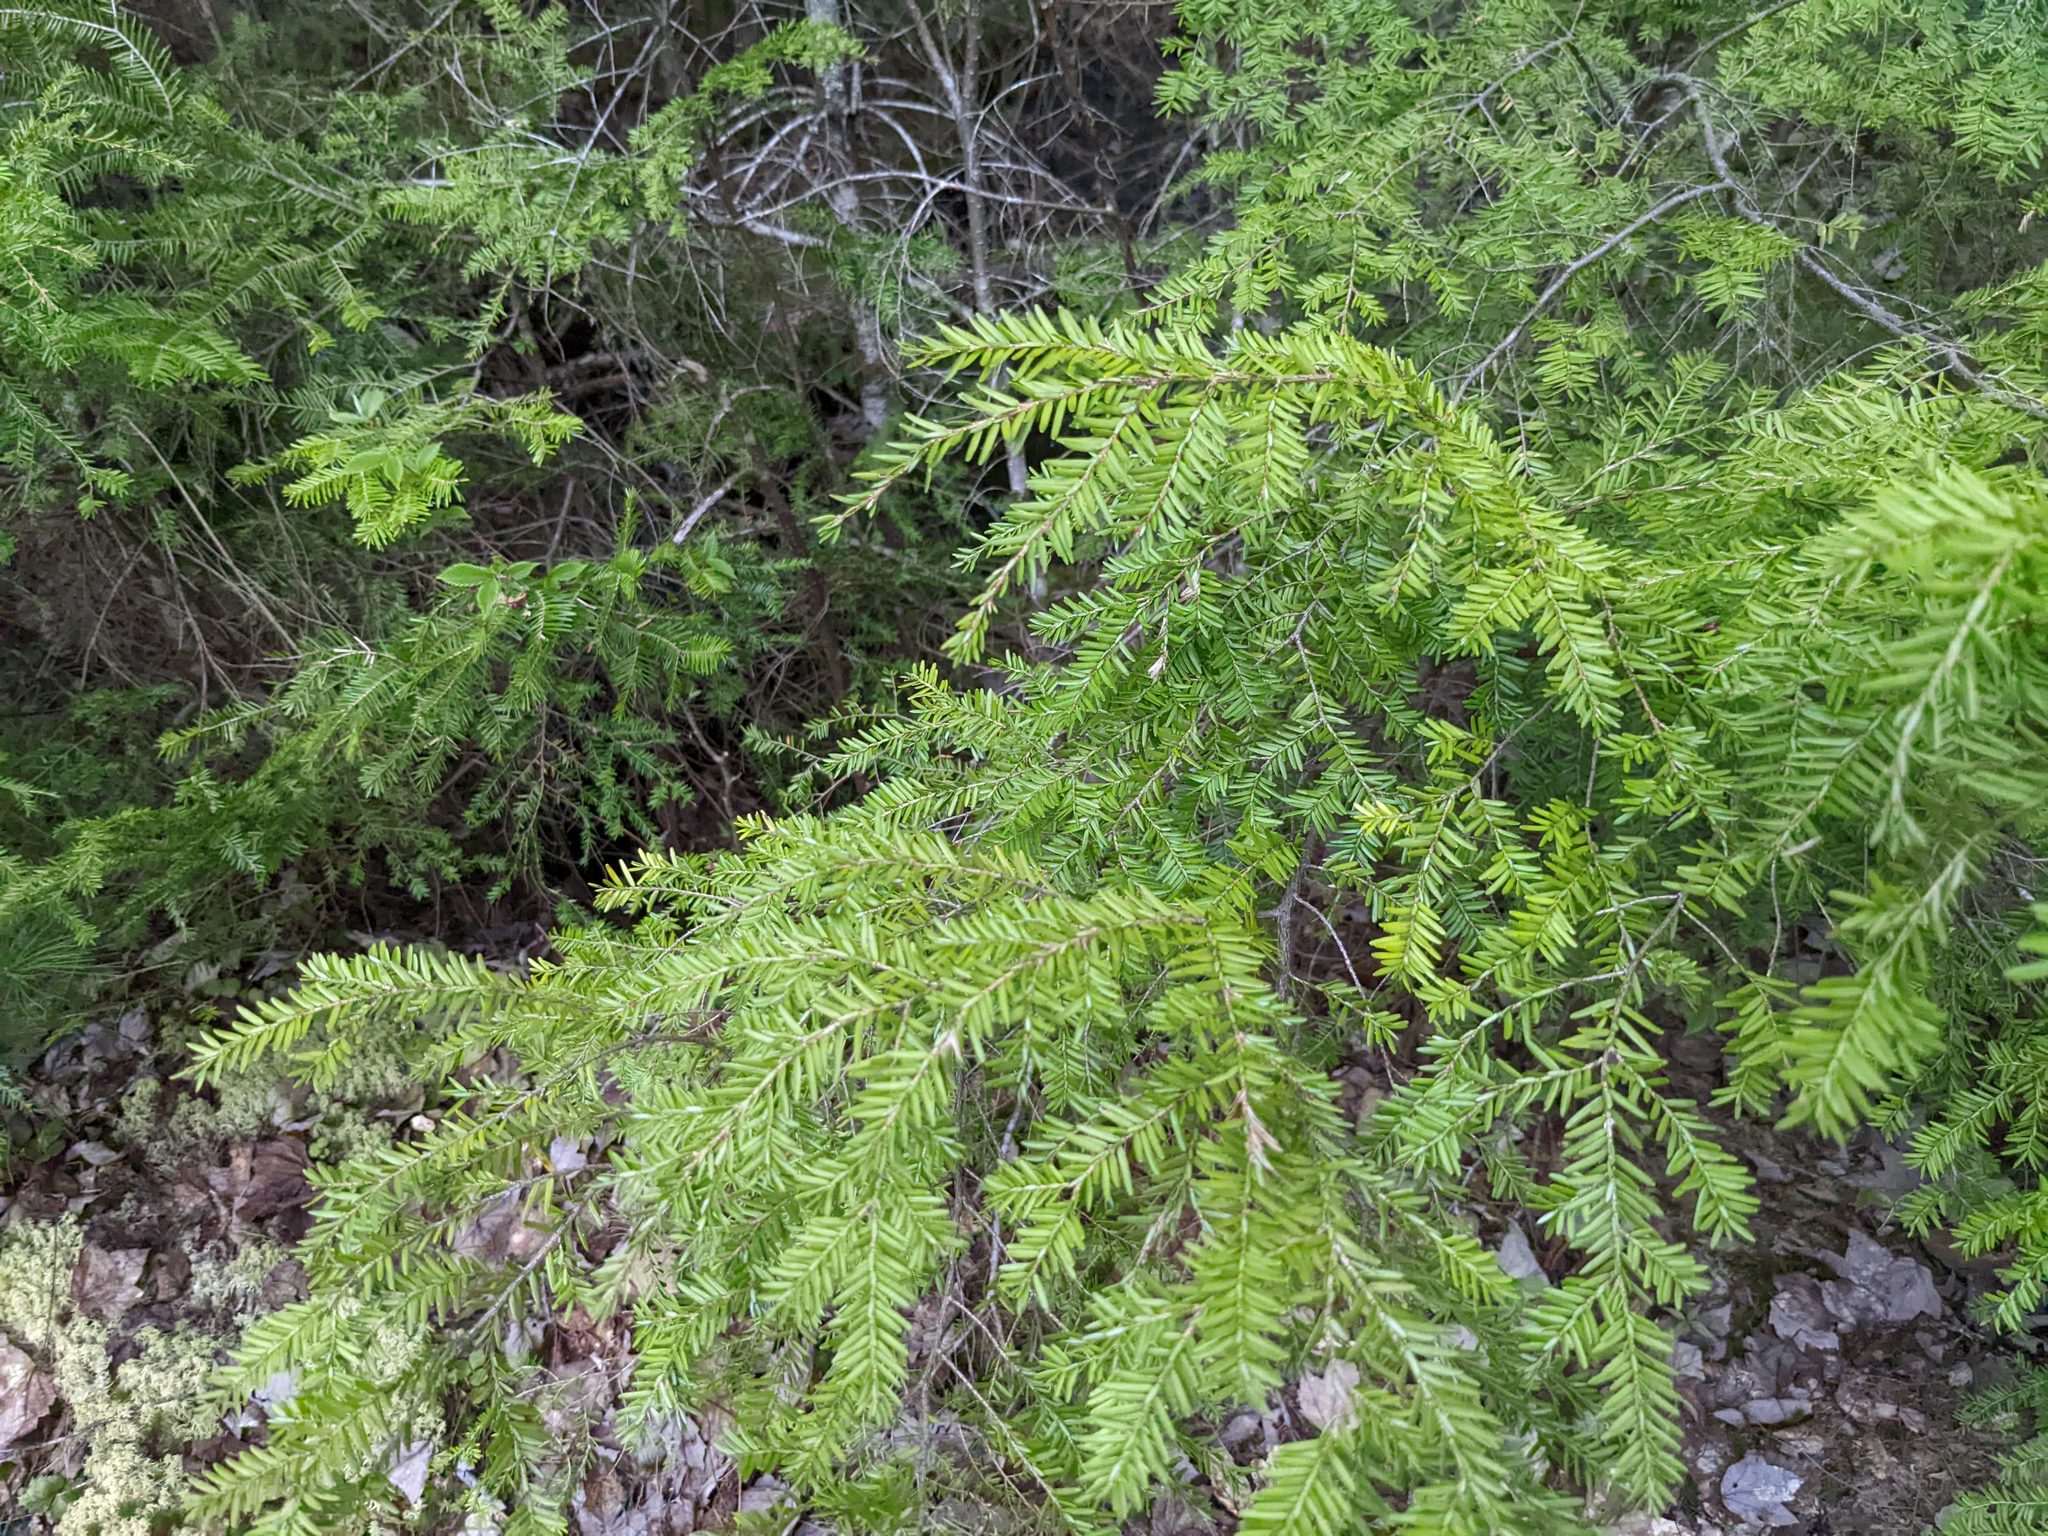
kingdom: Plantae
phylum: Tracheophyta
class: Pinopsida
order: Pinales
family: Pinaceae
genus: Tsuga
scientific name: Tsuga canadensis
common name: Eastern hemlock
